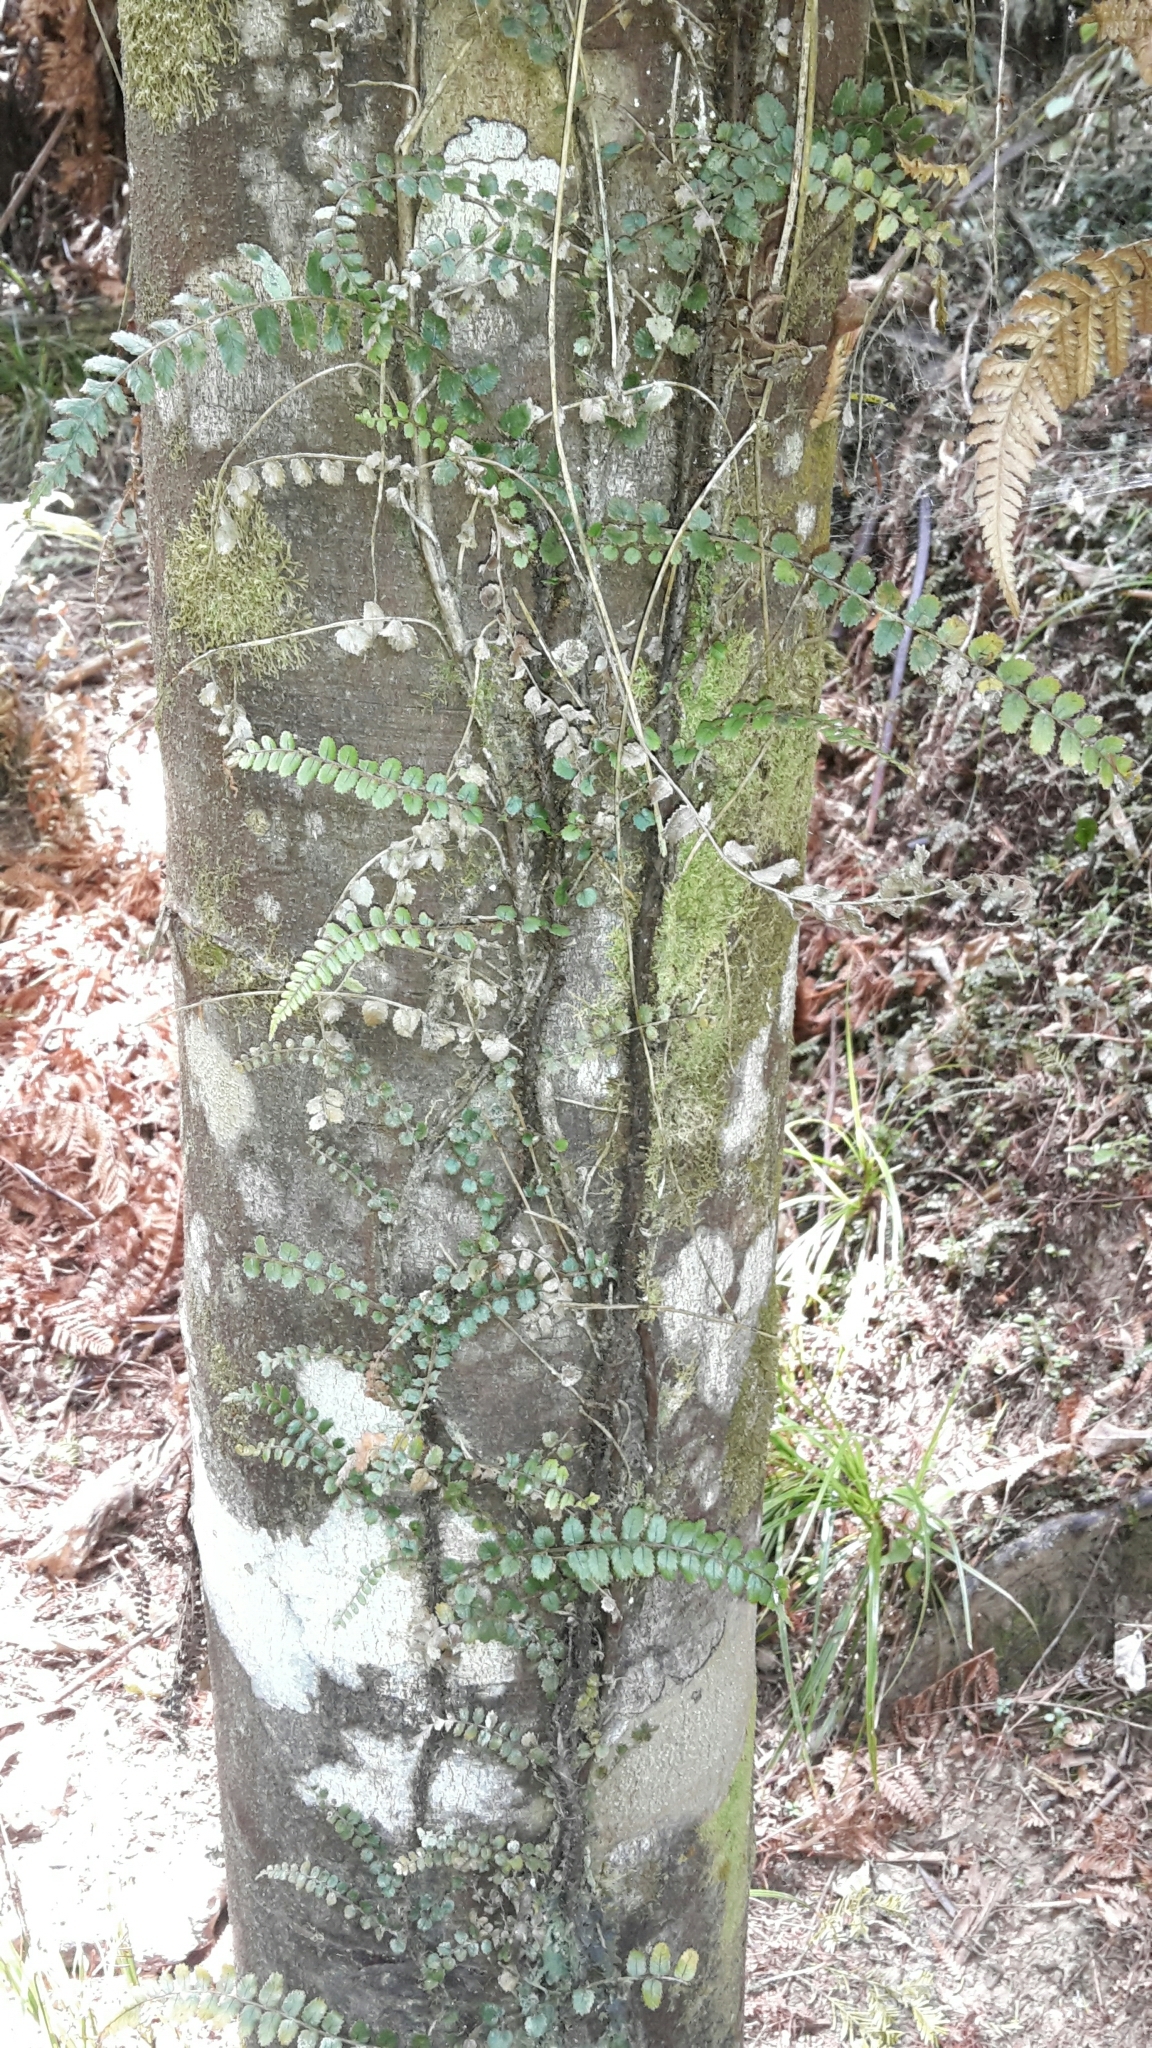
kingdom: Plantae
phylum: Tracheophyta
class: Polypodiopsida
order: Polypodiales
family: Blechnaceae
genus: Icarus
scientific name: Icarus filiformis
